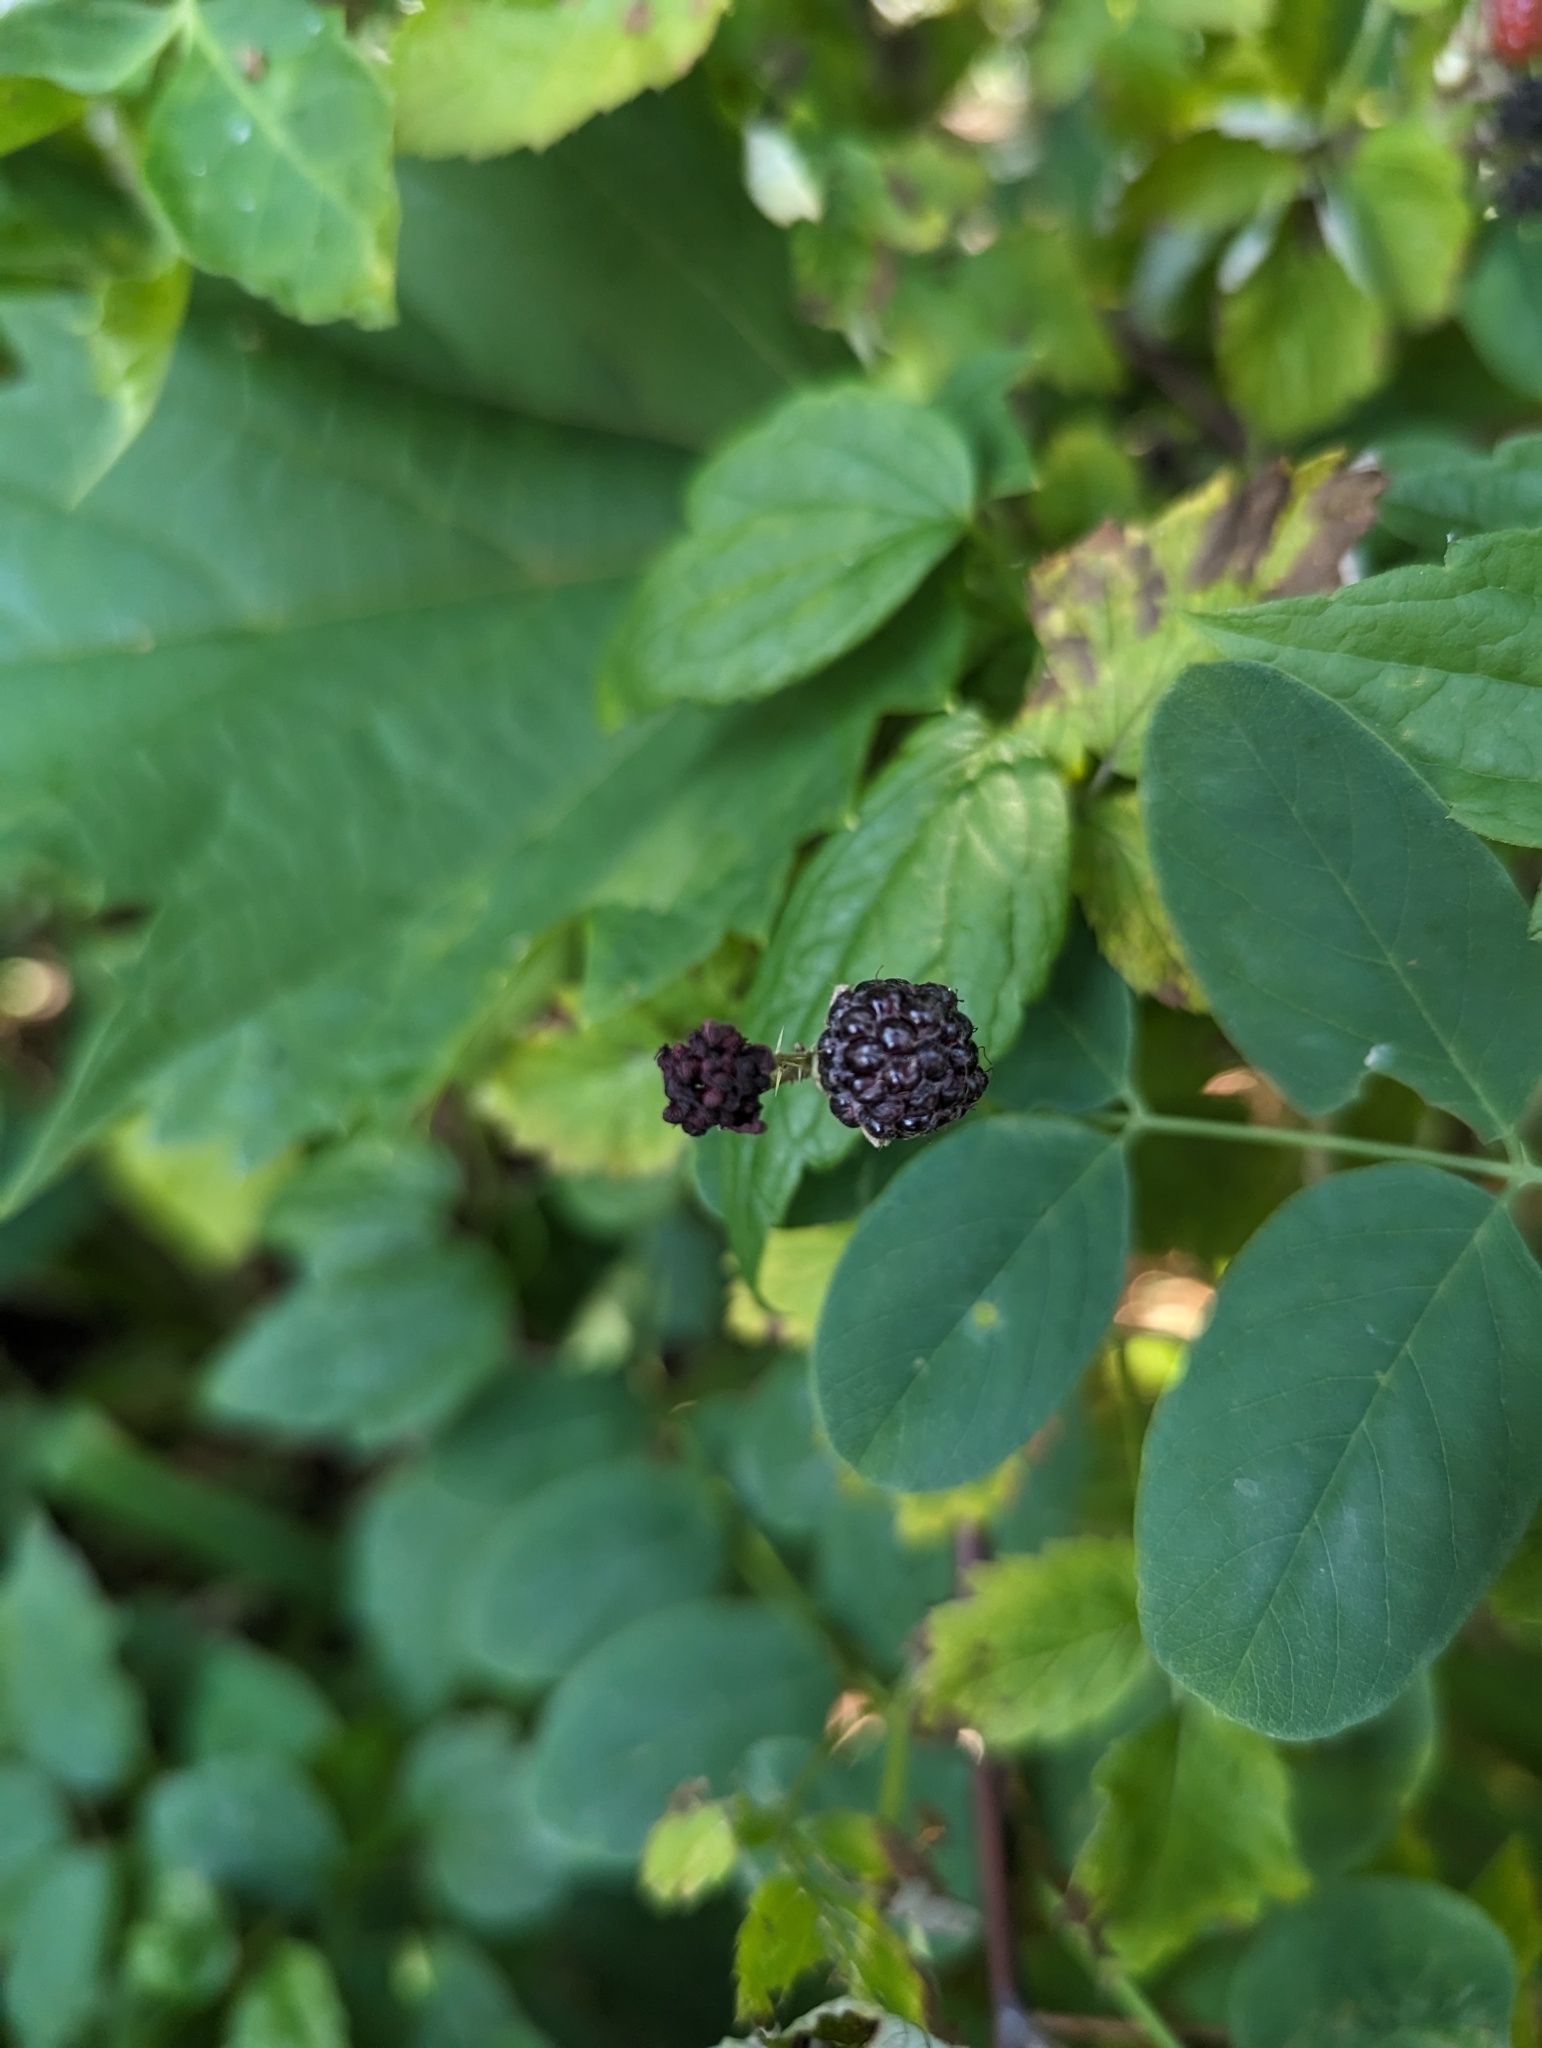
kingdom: Plantae
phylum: Tracheophyta
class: Magnoliopsida
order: Rosales
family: Rosaceae
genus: Rubus
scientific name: Rubus occidentalis
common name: Black raspberry
